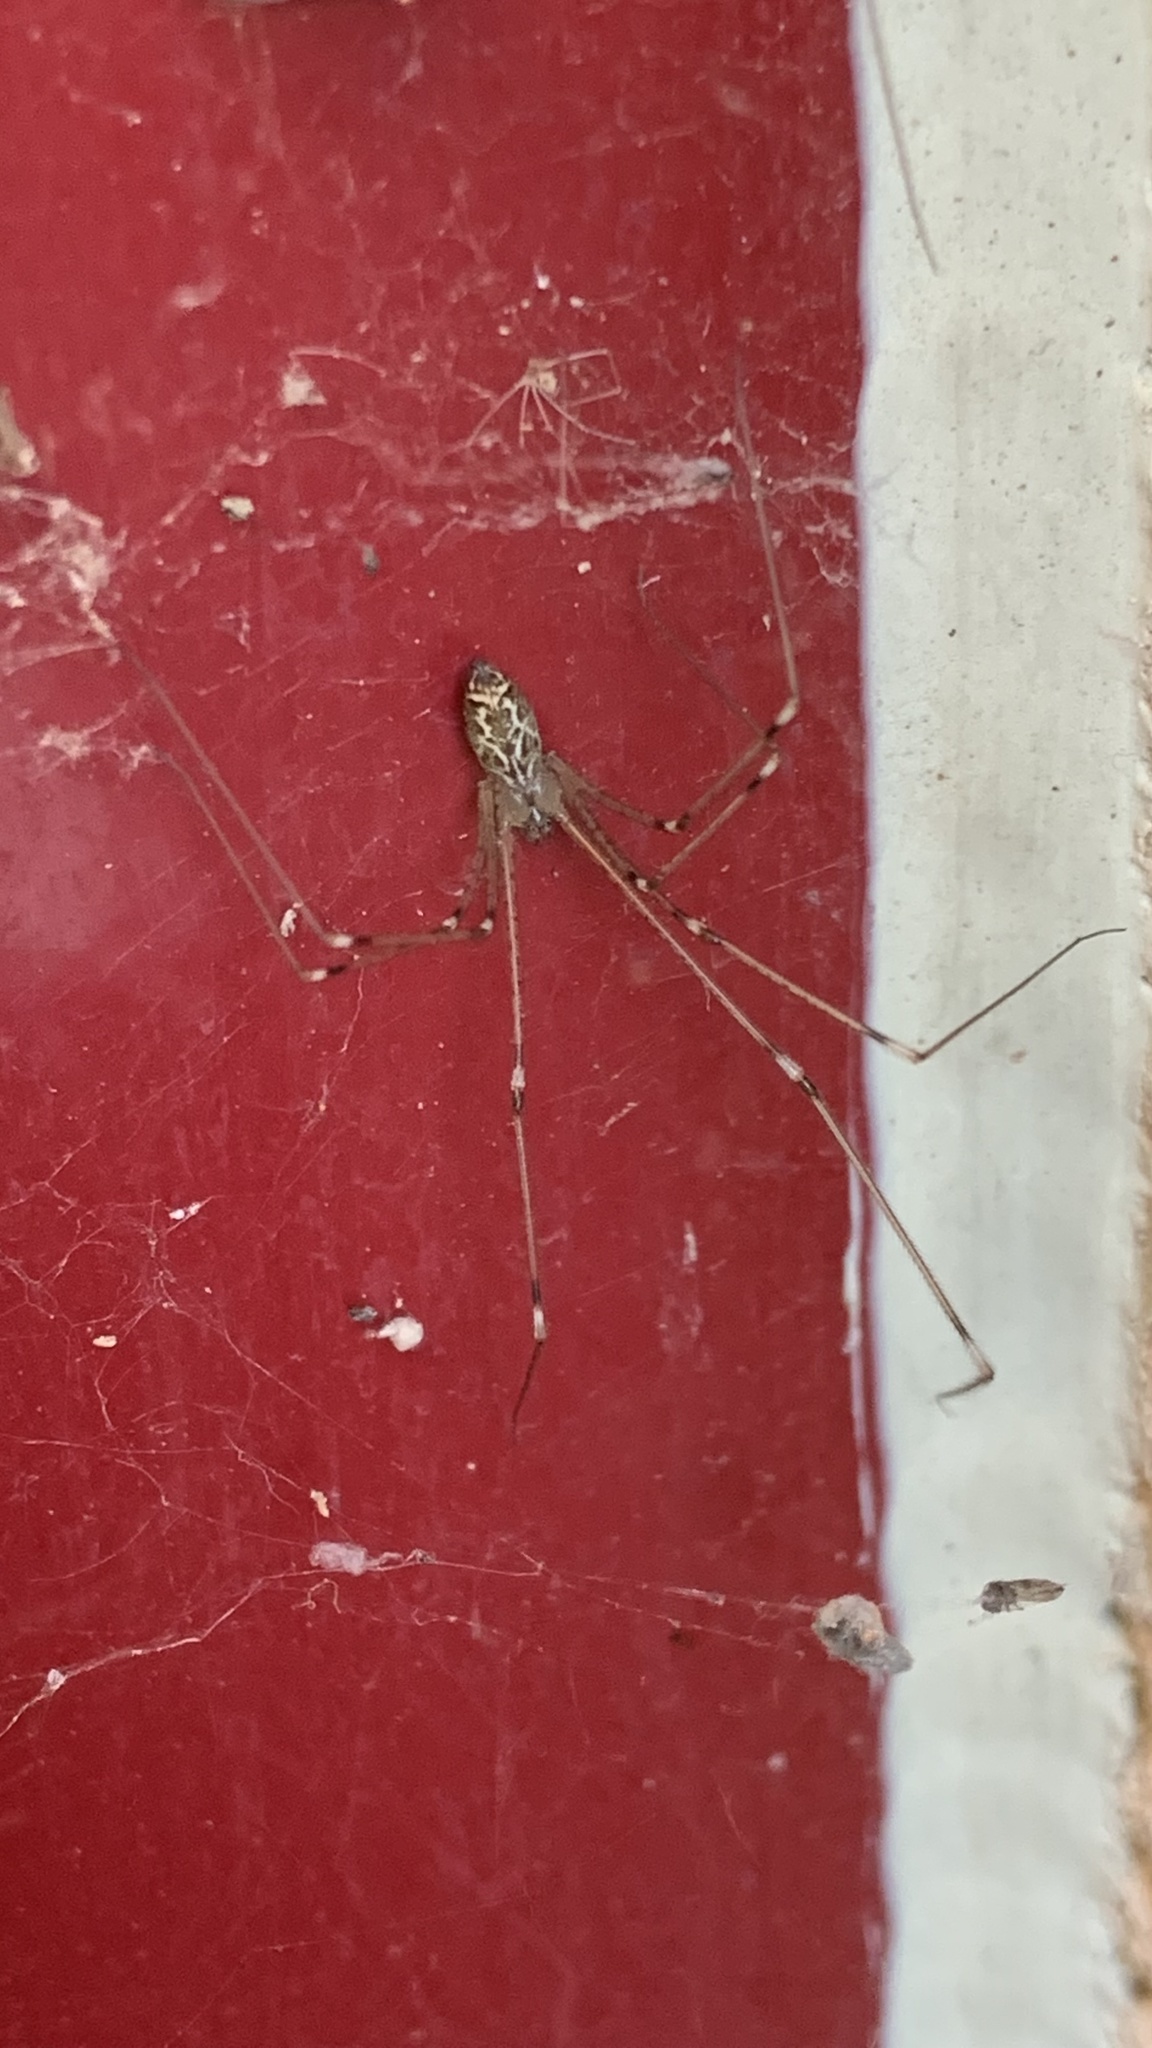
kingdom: Animalia
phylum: Arthropoda
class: Arachnida
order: Araneae
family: Pholcidae
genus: Holocnemus
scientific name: Holocnemus pluchei
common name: Marbled cellar spider
